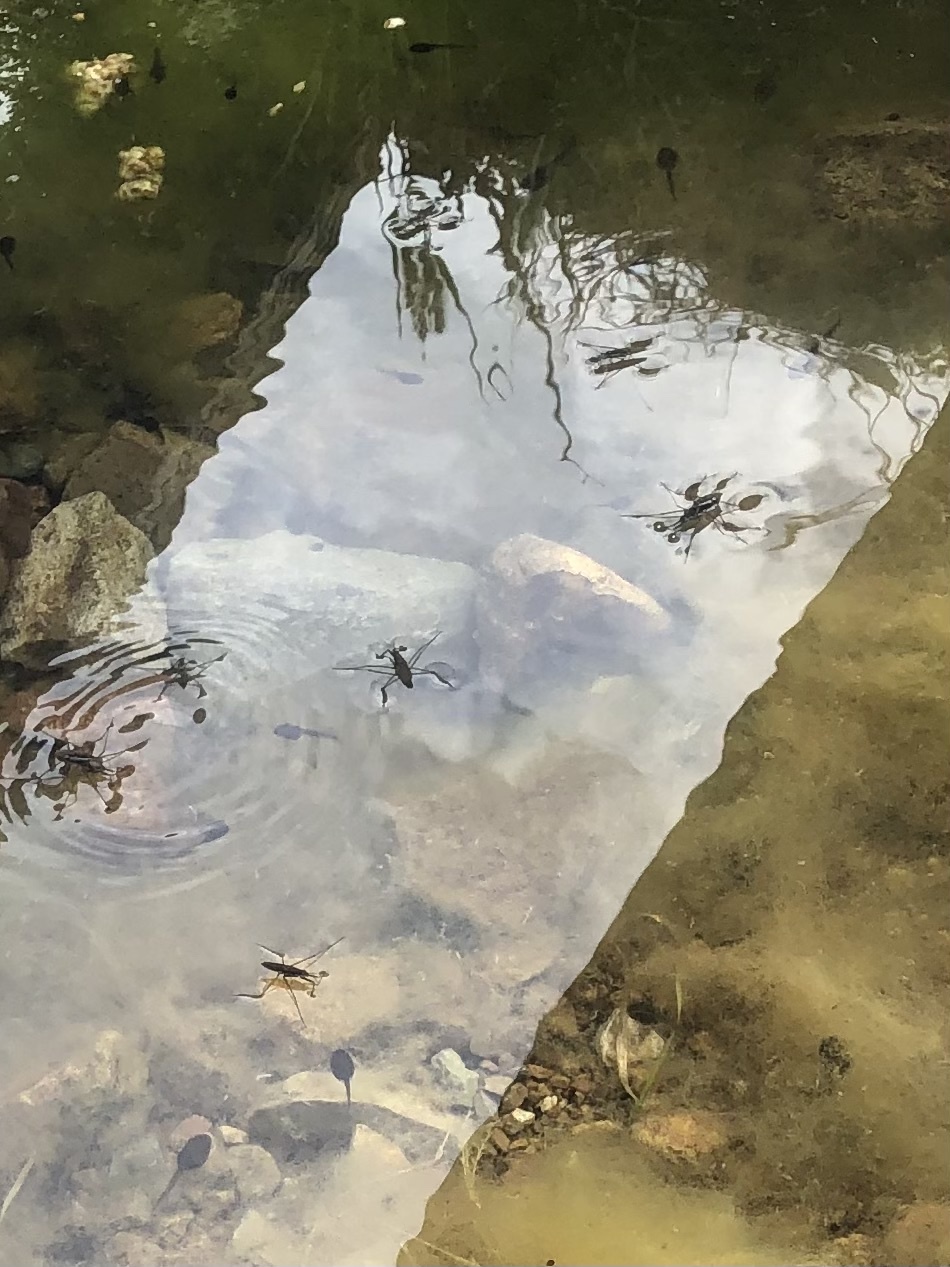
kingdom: Animalia
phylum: Arthropoda
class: Insecta
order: Hemiptera
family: Gerridae
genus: Aquarius
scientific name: Aquarius remigis
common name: Common water strider
